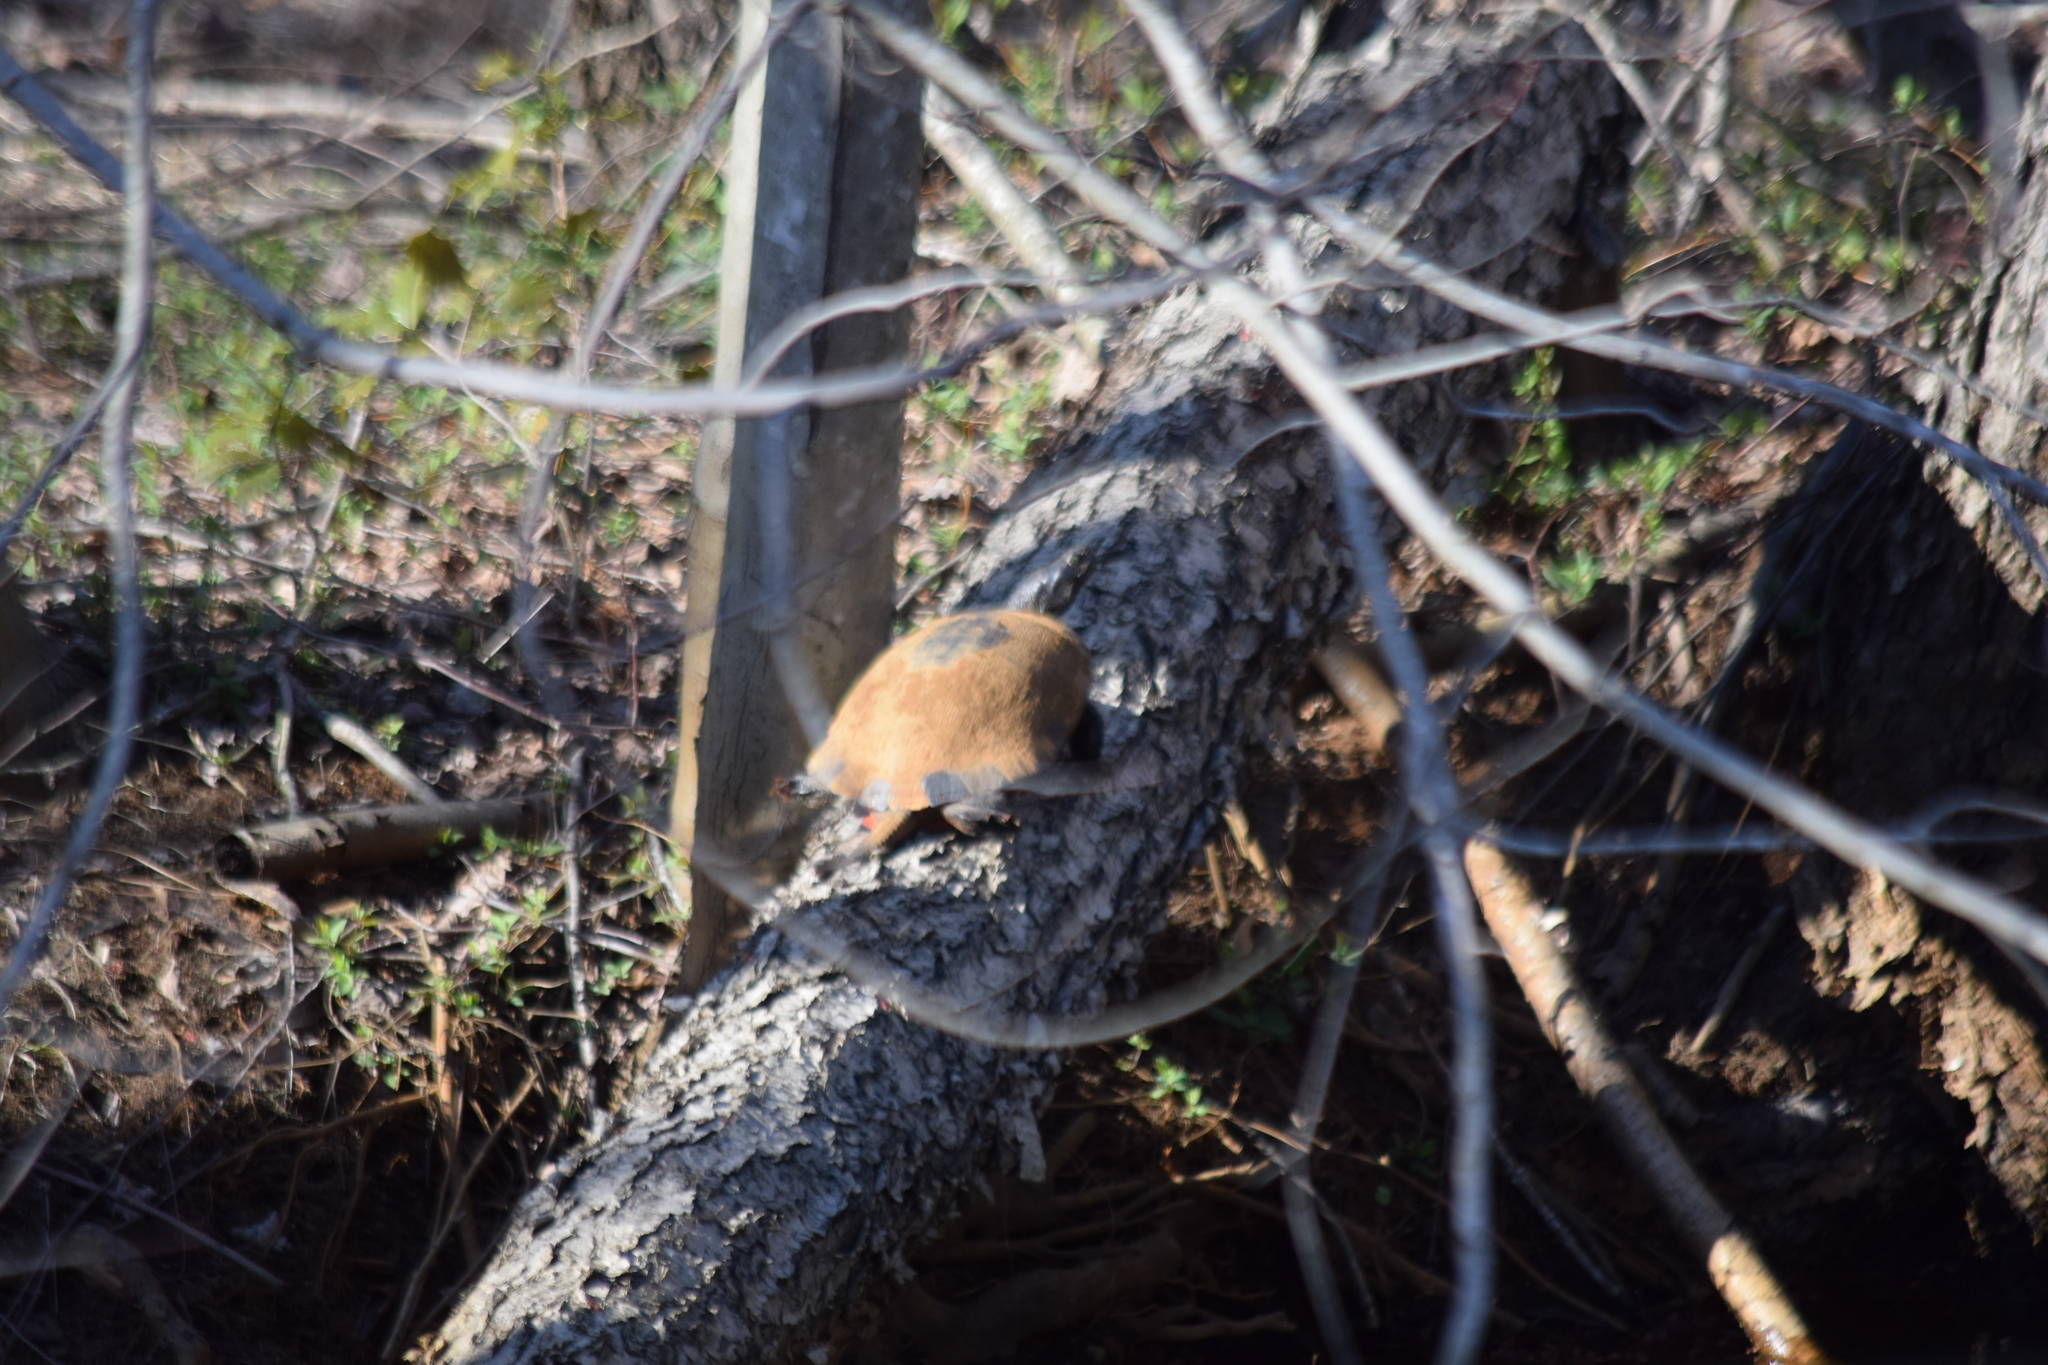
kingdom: Animalia
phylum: Chordata
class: Testudines
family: Emydidae
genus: Pseudemys
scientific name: Pseudemys rubriventris
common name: American red-bellied turtle
